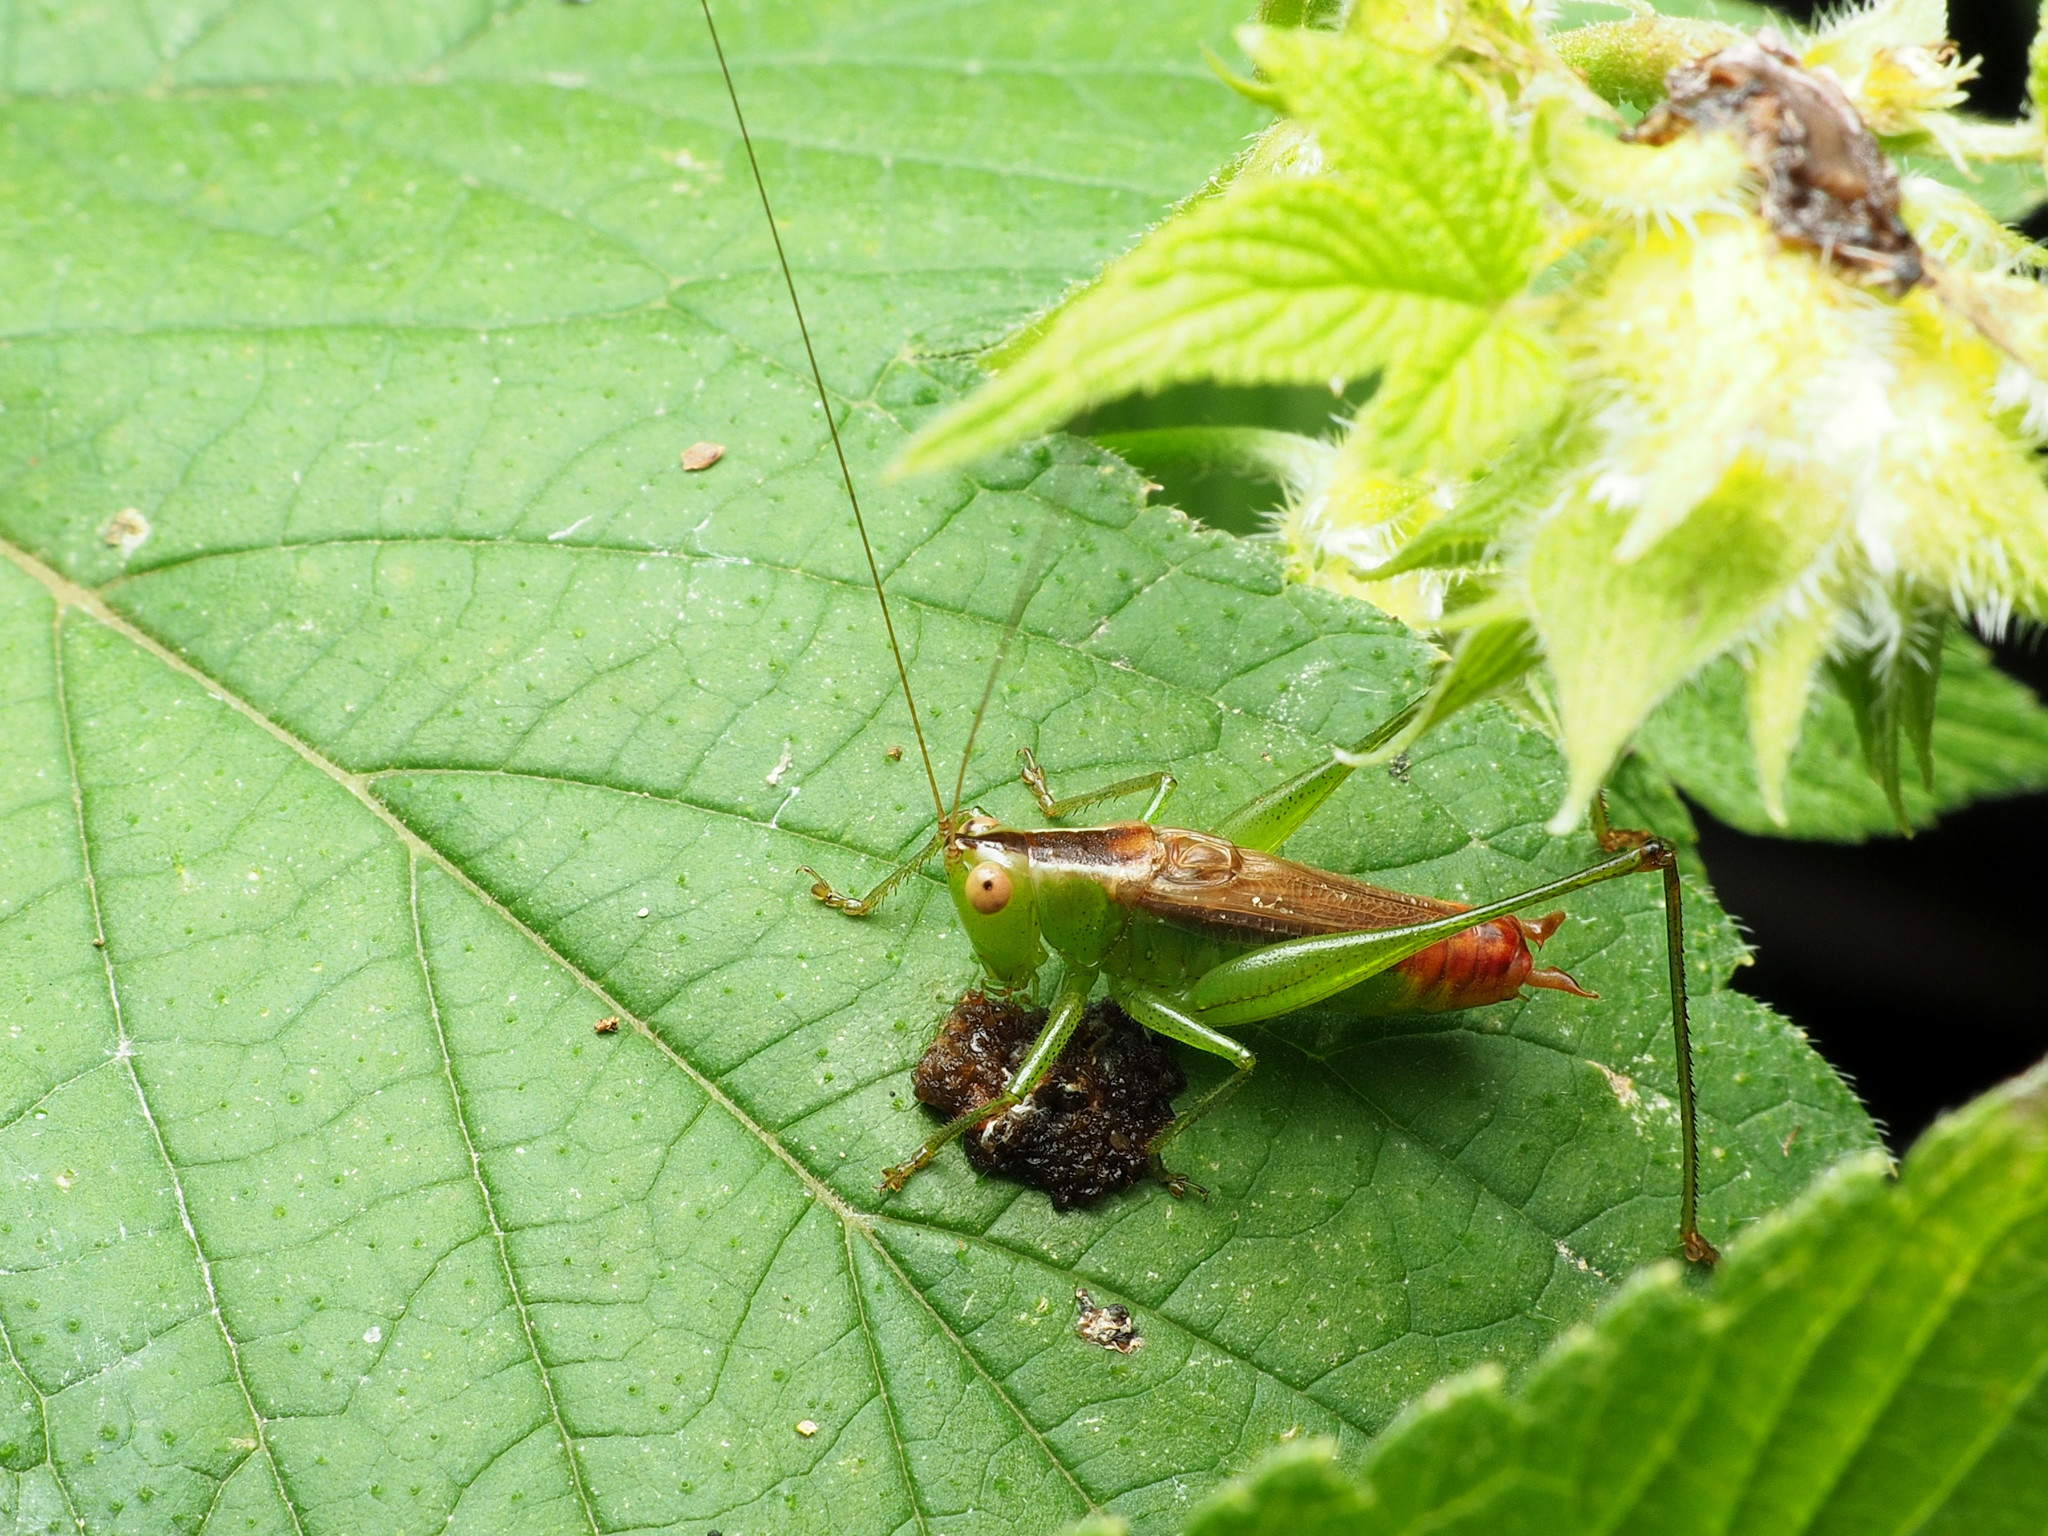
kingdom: Animalia
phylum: Arthropoda
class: Insecta
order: Orthoptera
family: Tettigoniidae
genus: Conocephalus
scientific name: Conocephalus brevipennis
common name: Short-winged meadow katydid
